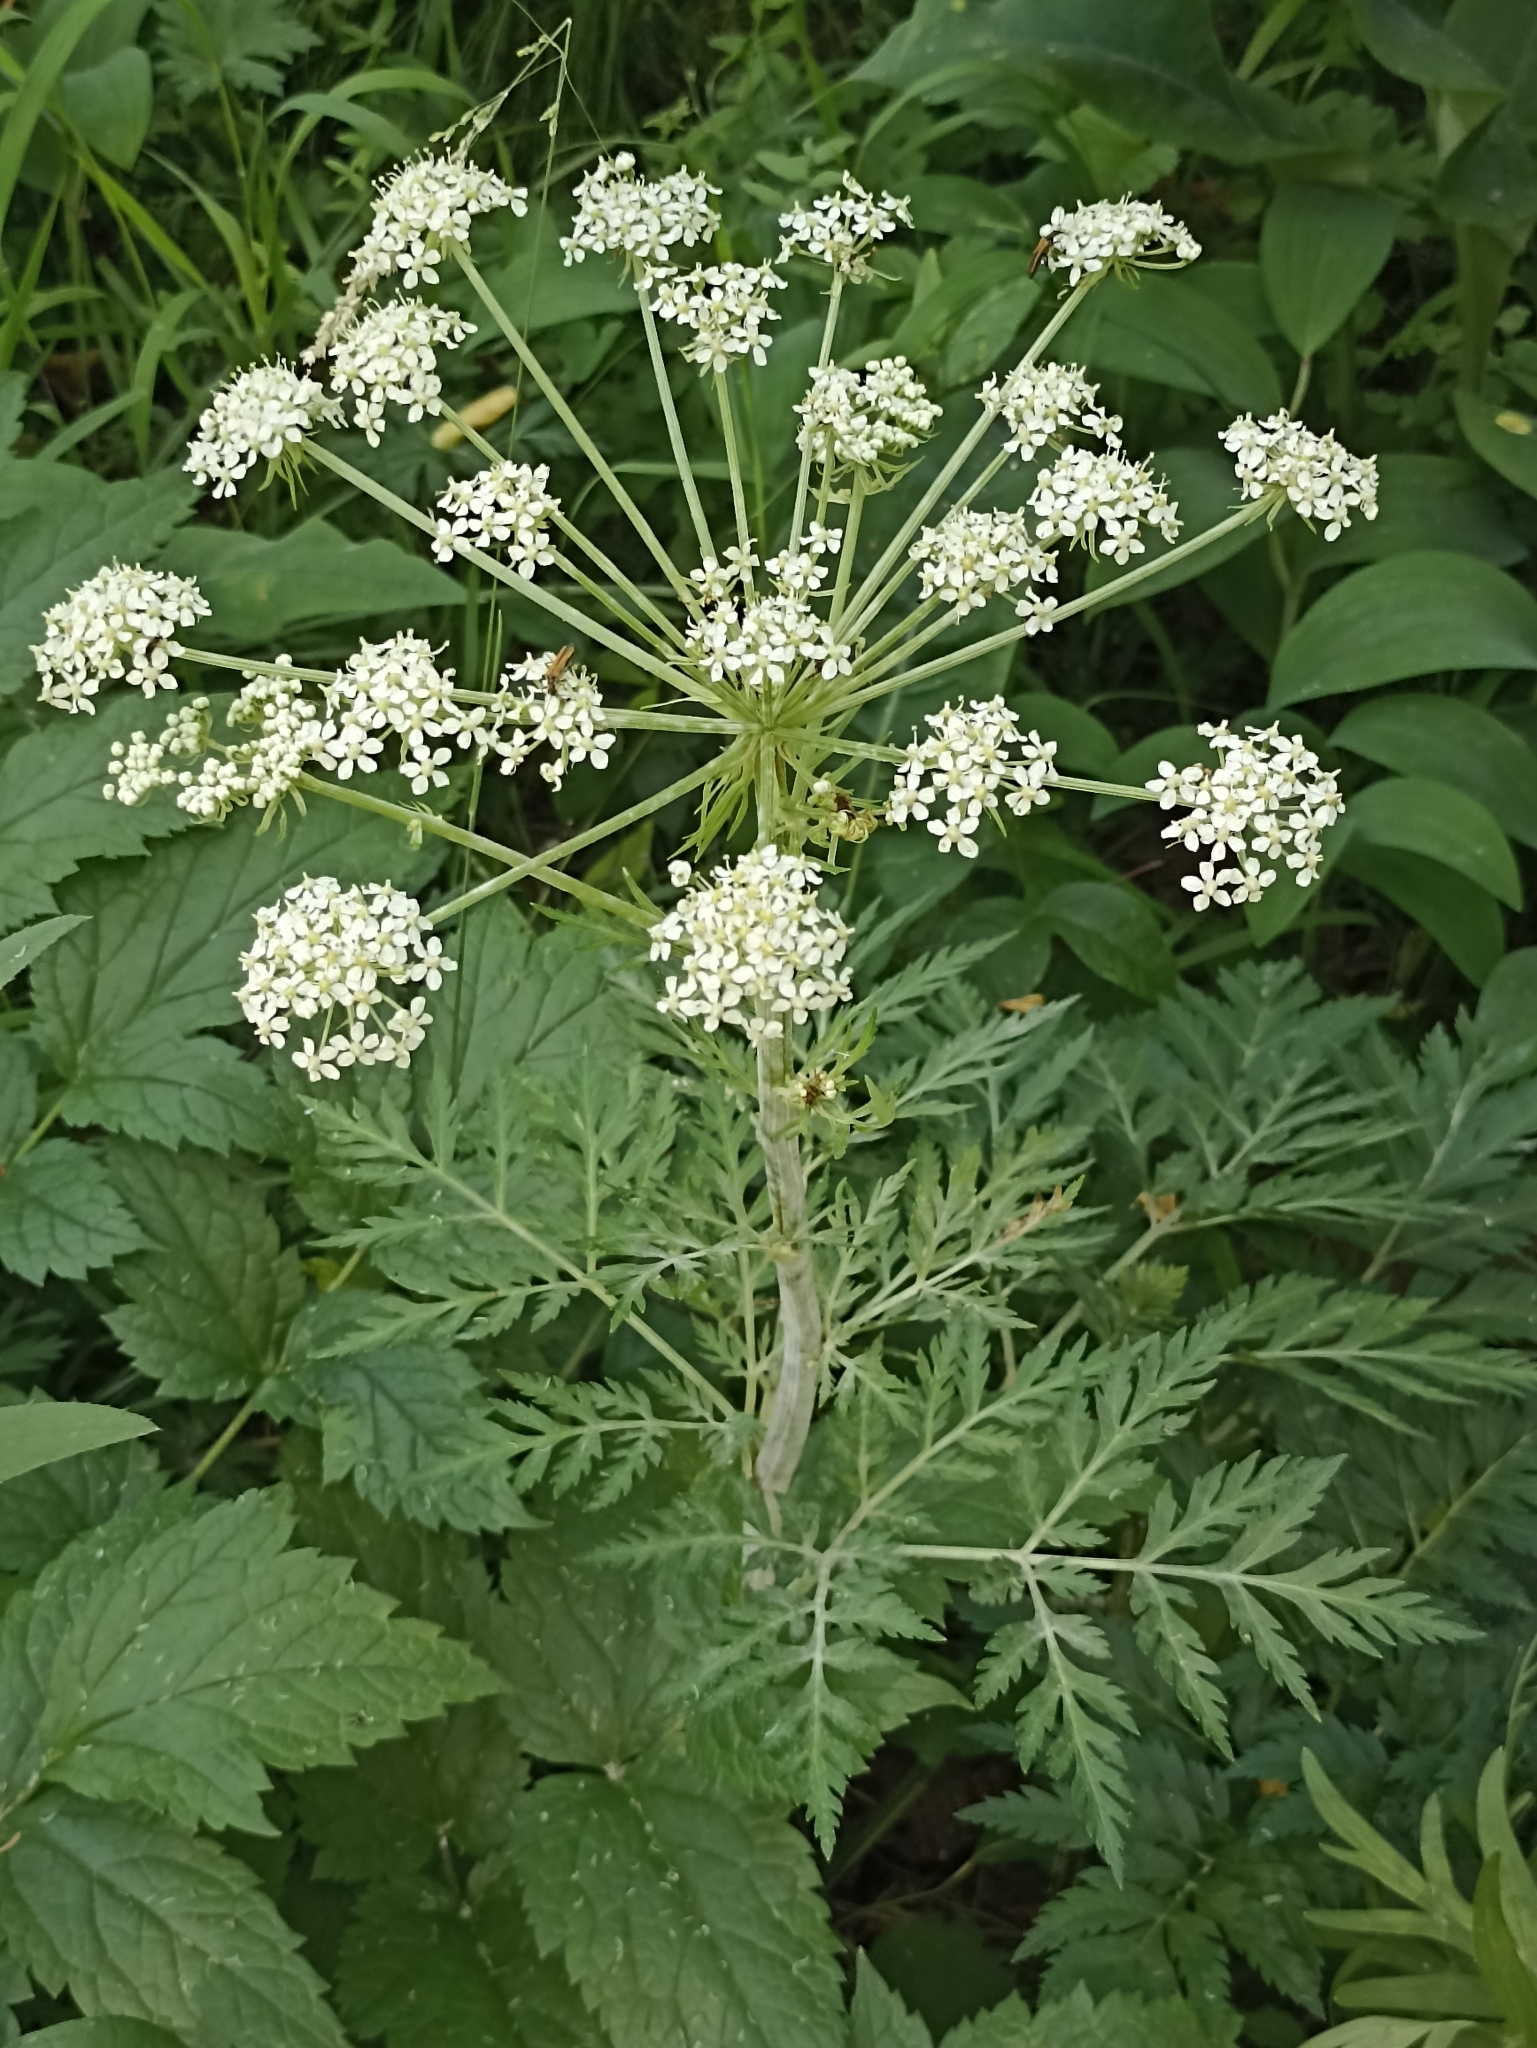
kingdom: Plantae
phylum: Tracheophyta
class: Magnoliopsida
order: Apiales
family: Apiaceae
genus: Pleurospermum
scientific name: Pleurospermum uralense
